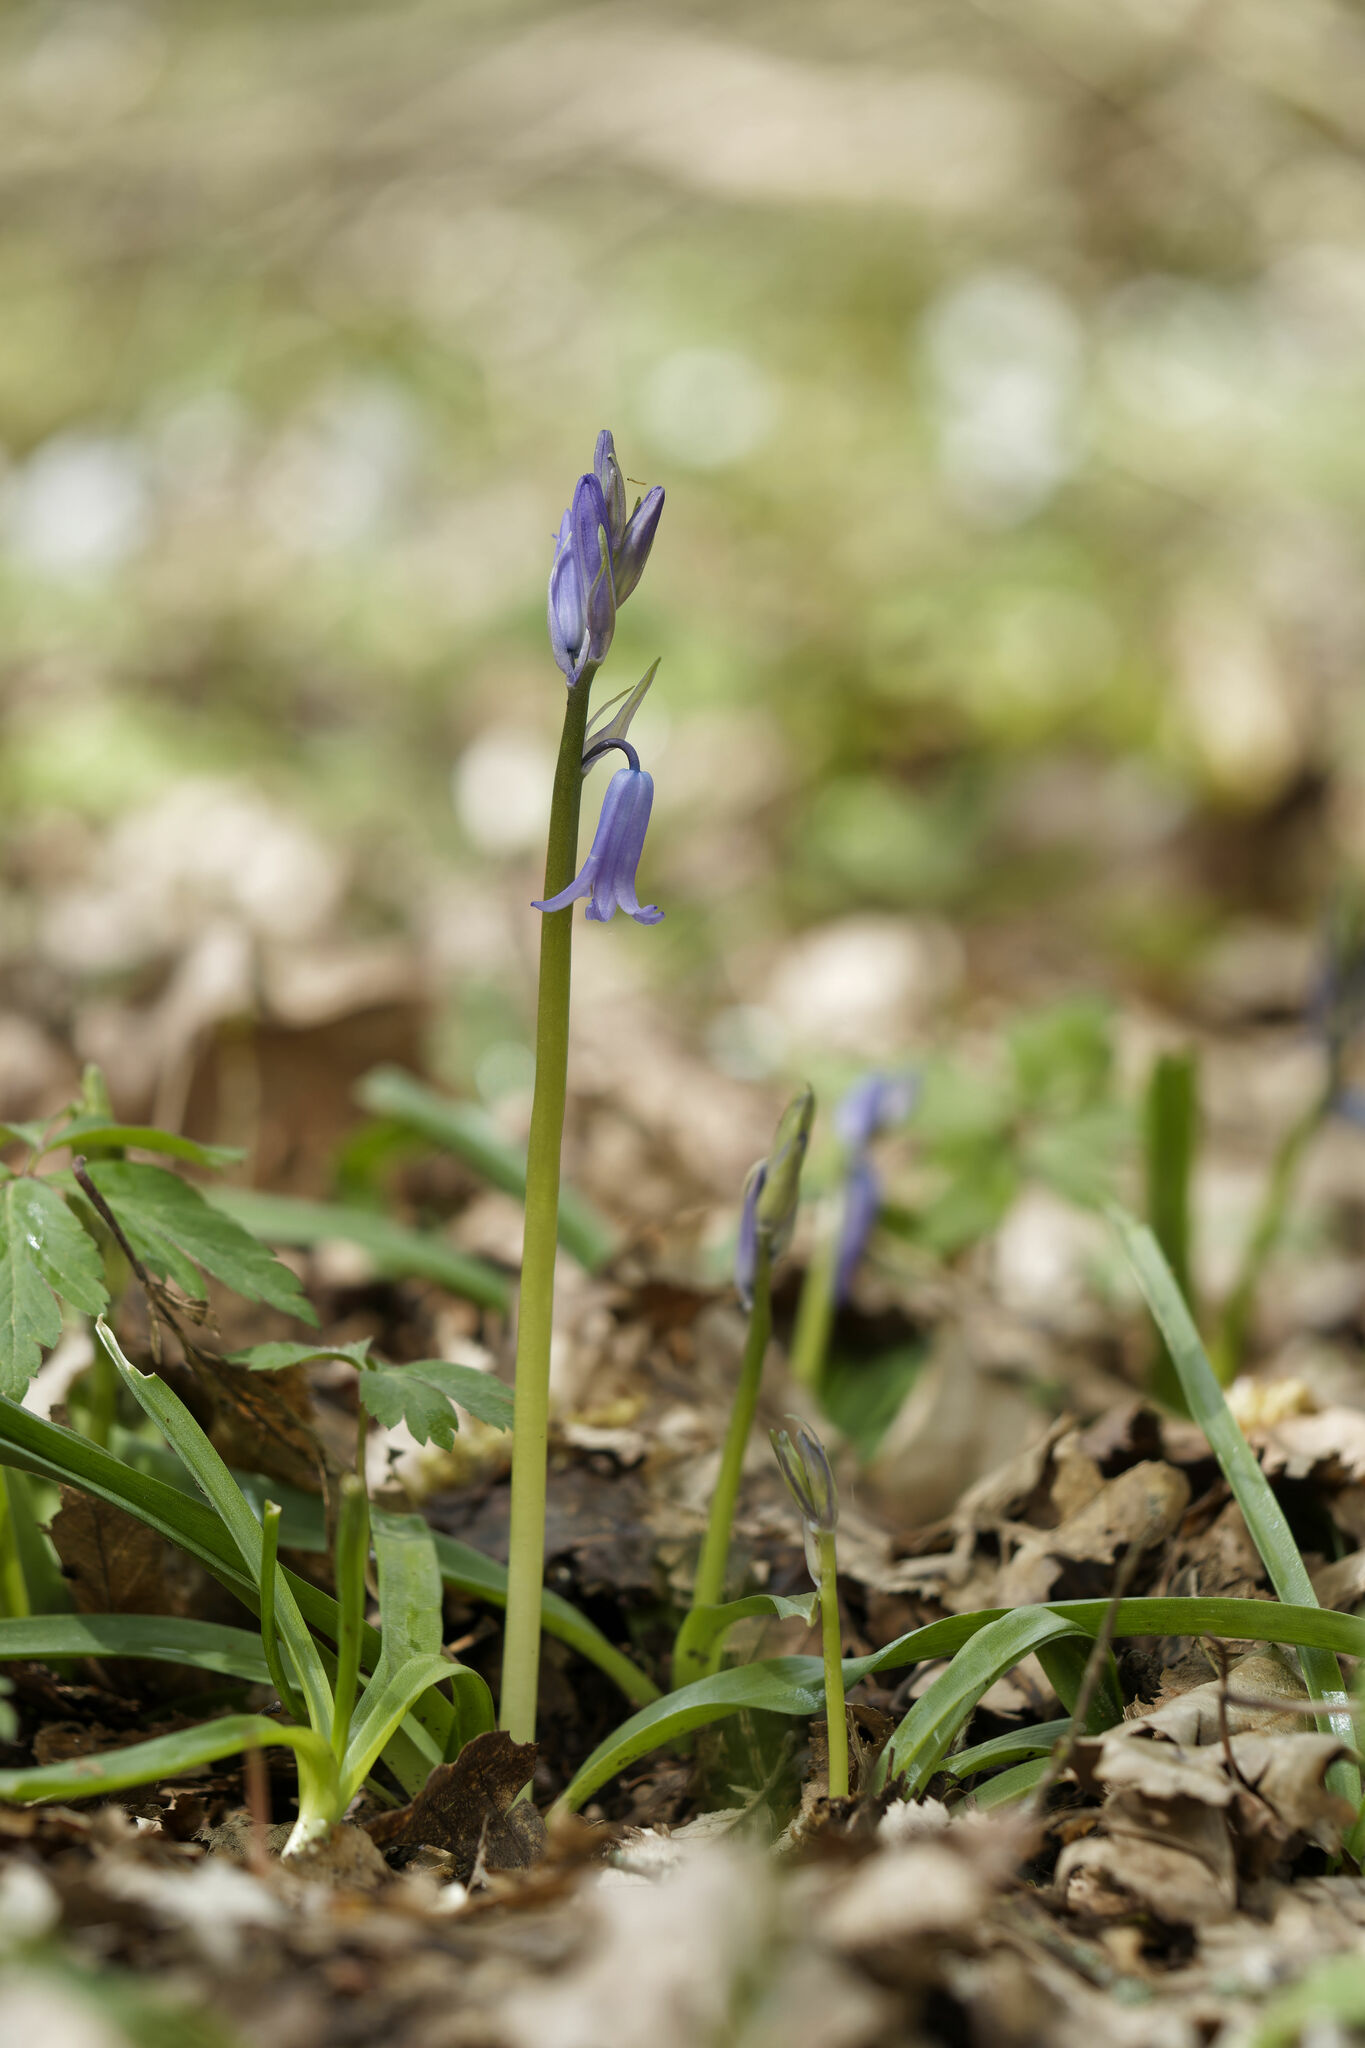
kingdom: Plantae
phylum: Tracheophyta
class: Liliopsida
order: Asparagales
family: Asparagaceae
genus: Hyacinthoides
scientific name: Hyacinthoides non-scripta
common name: Bluebell
